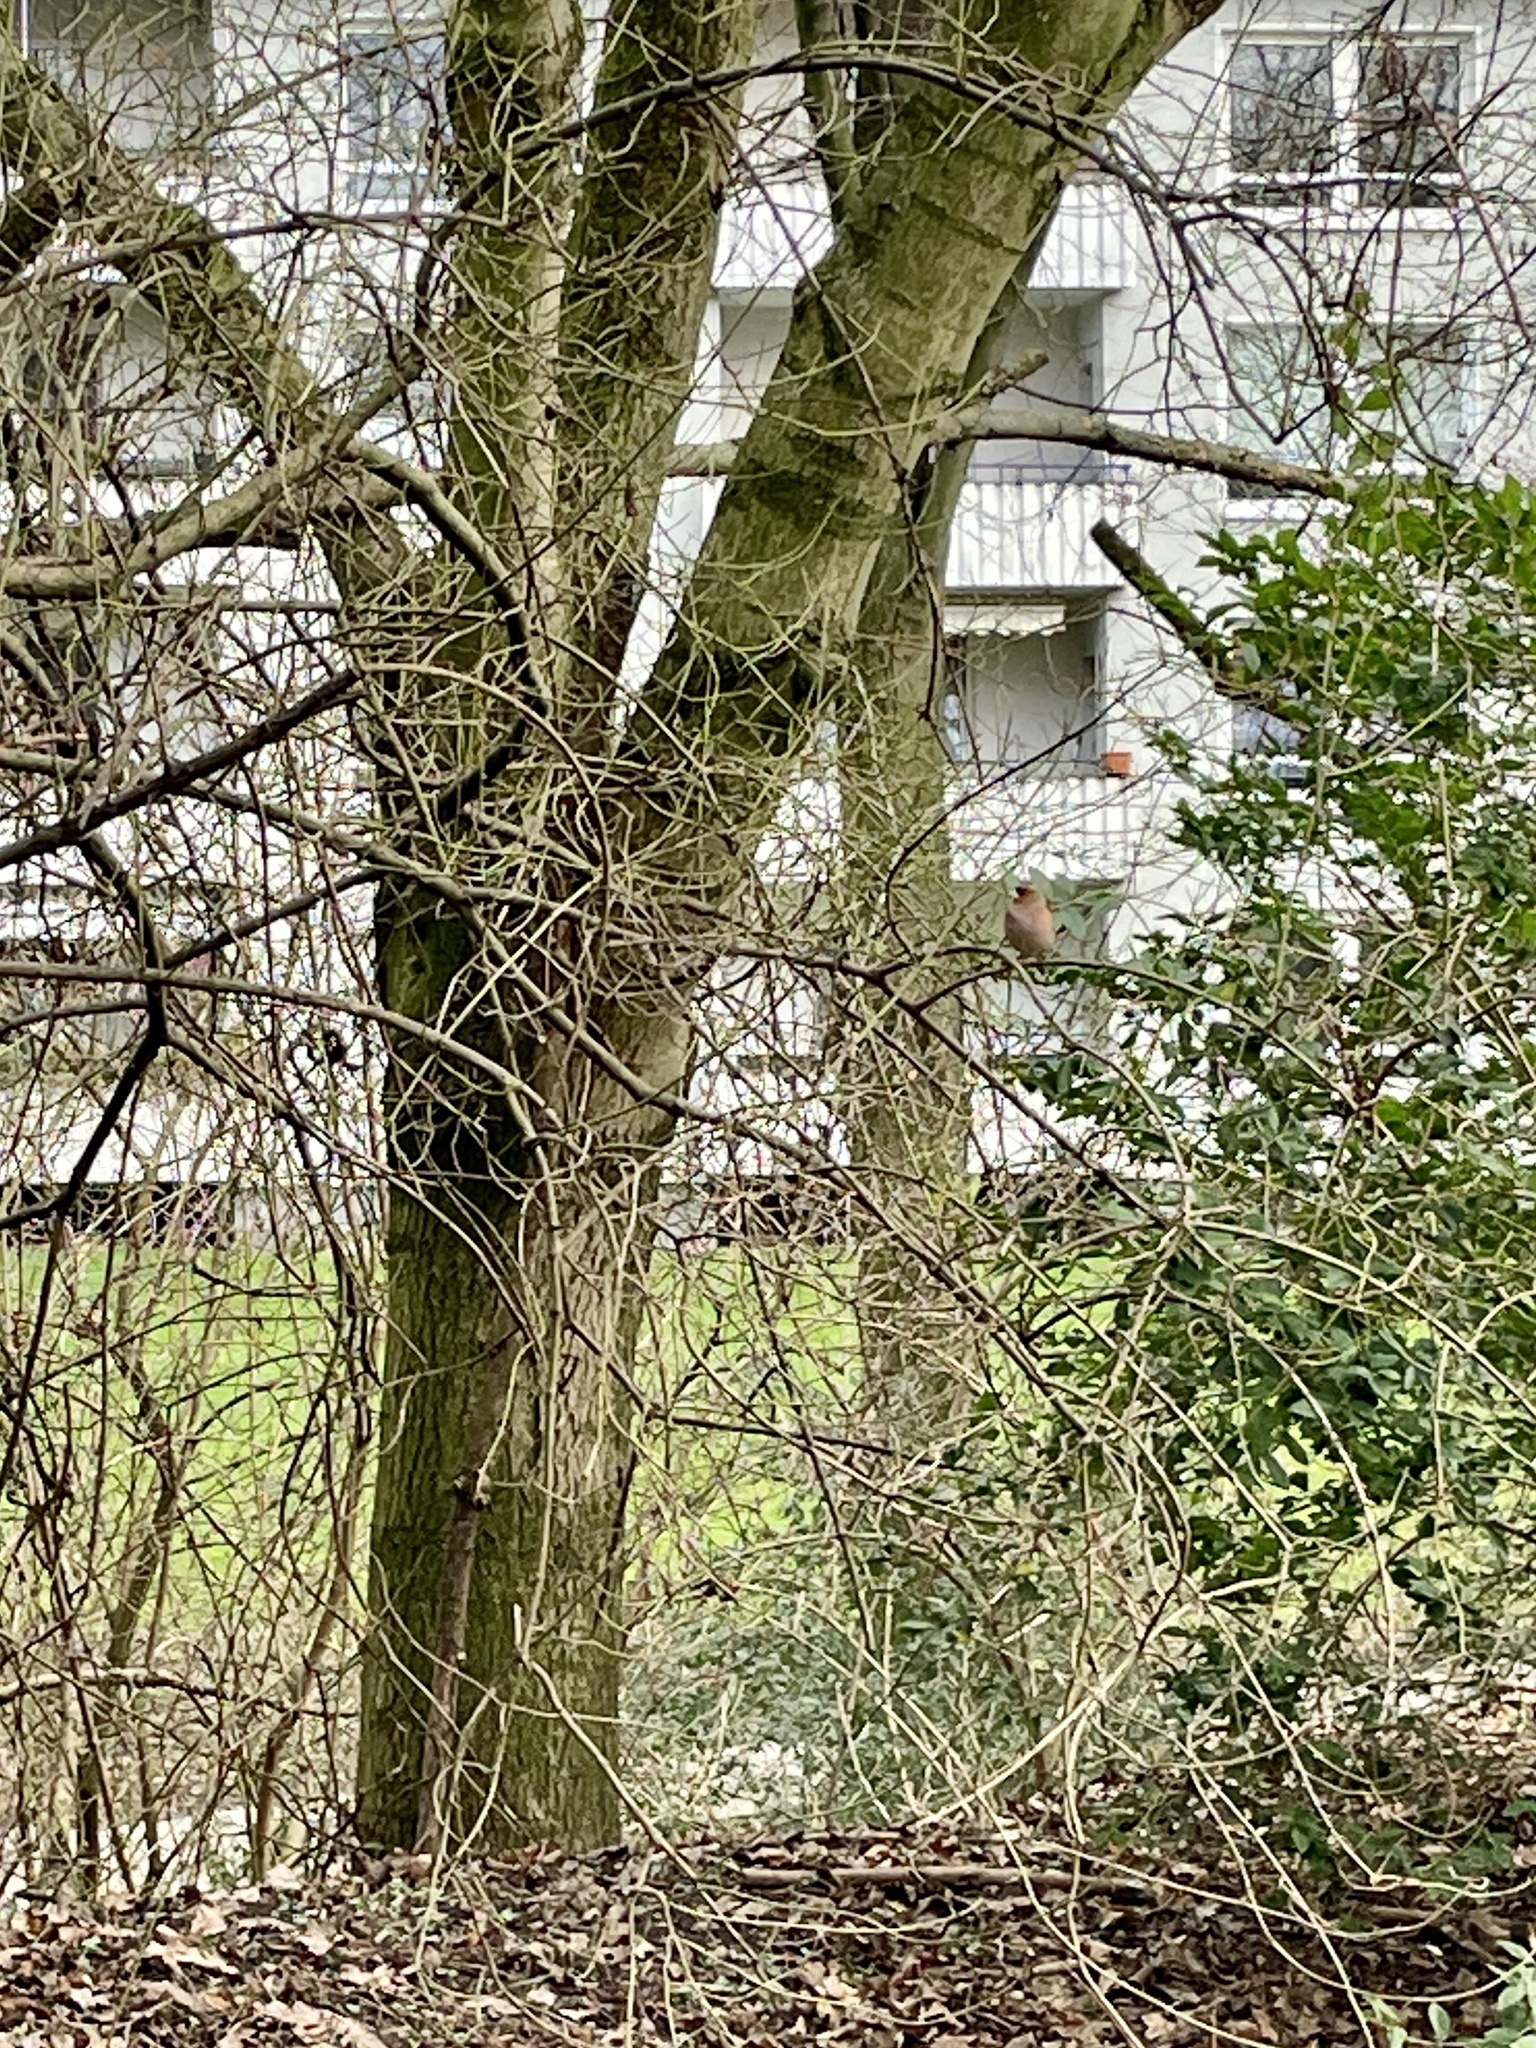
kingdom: Animalia
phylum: Chordata
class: Aves
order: Passeriformes
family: Fringillidae
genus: Fringilla
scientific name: Fringilla coelebs
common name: Common chaffinch
